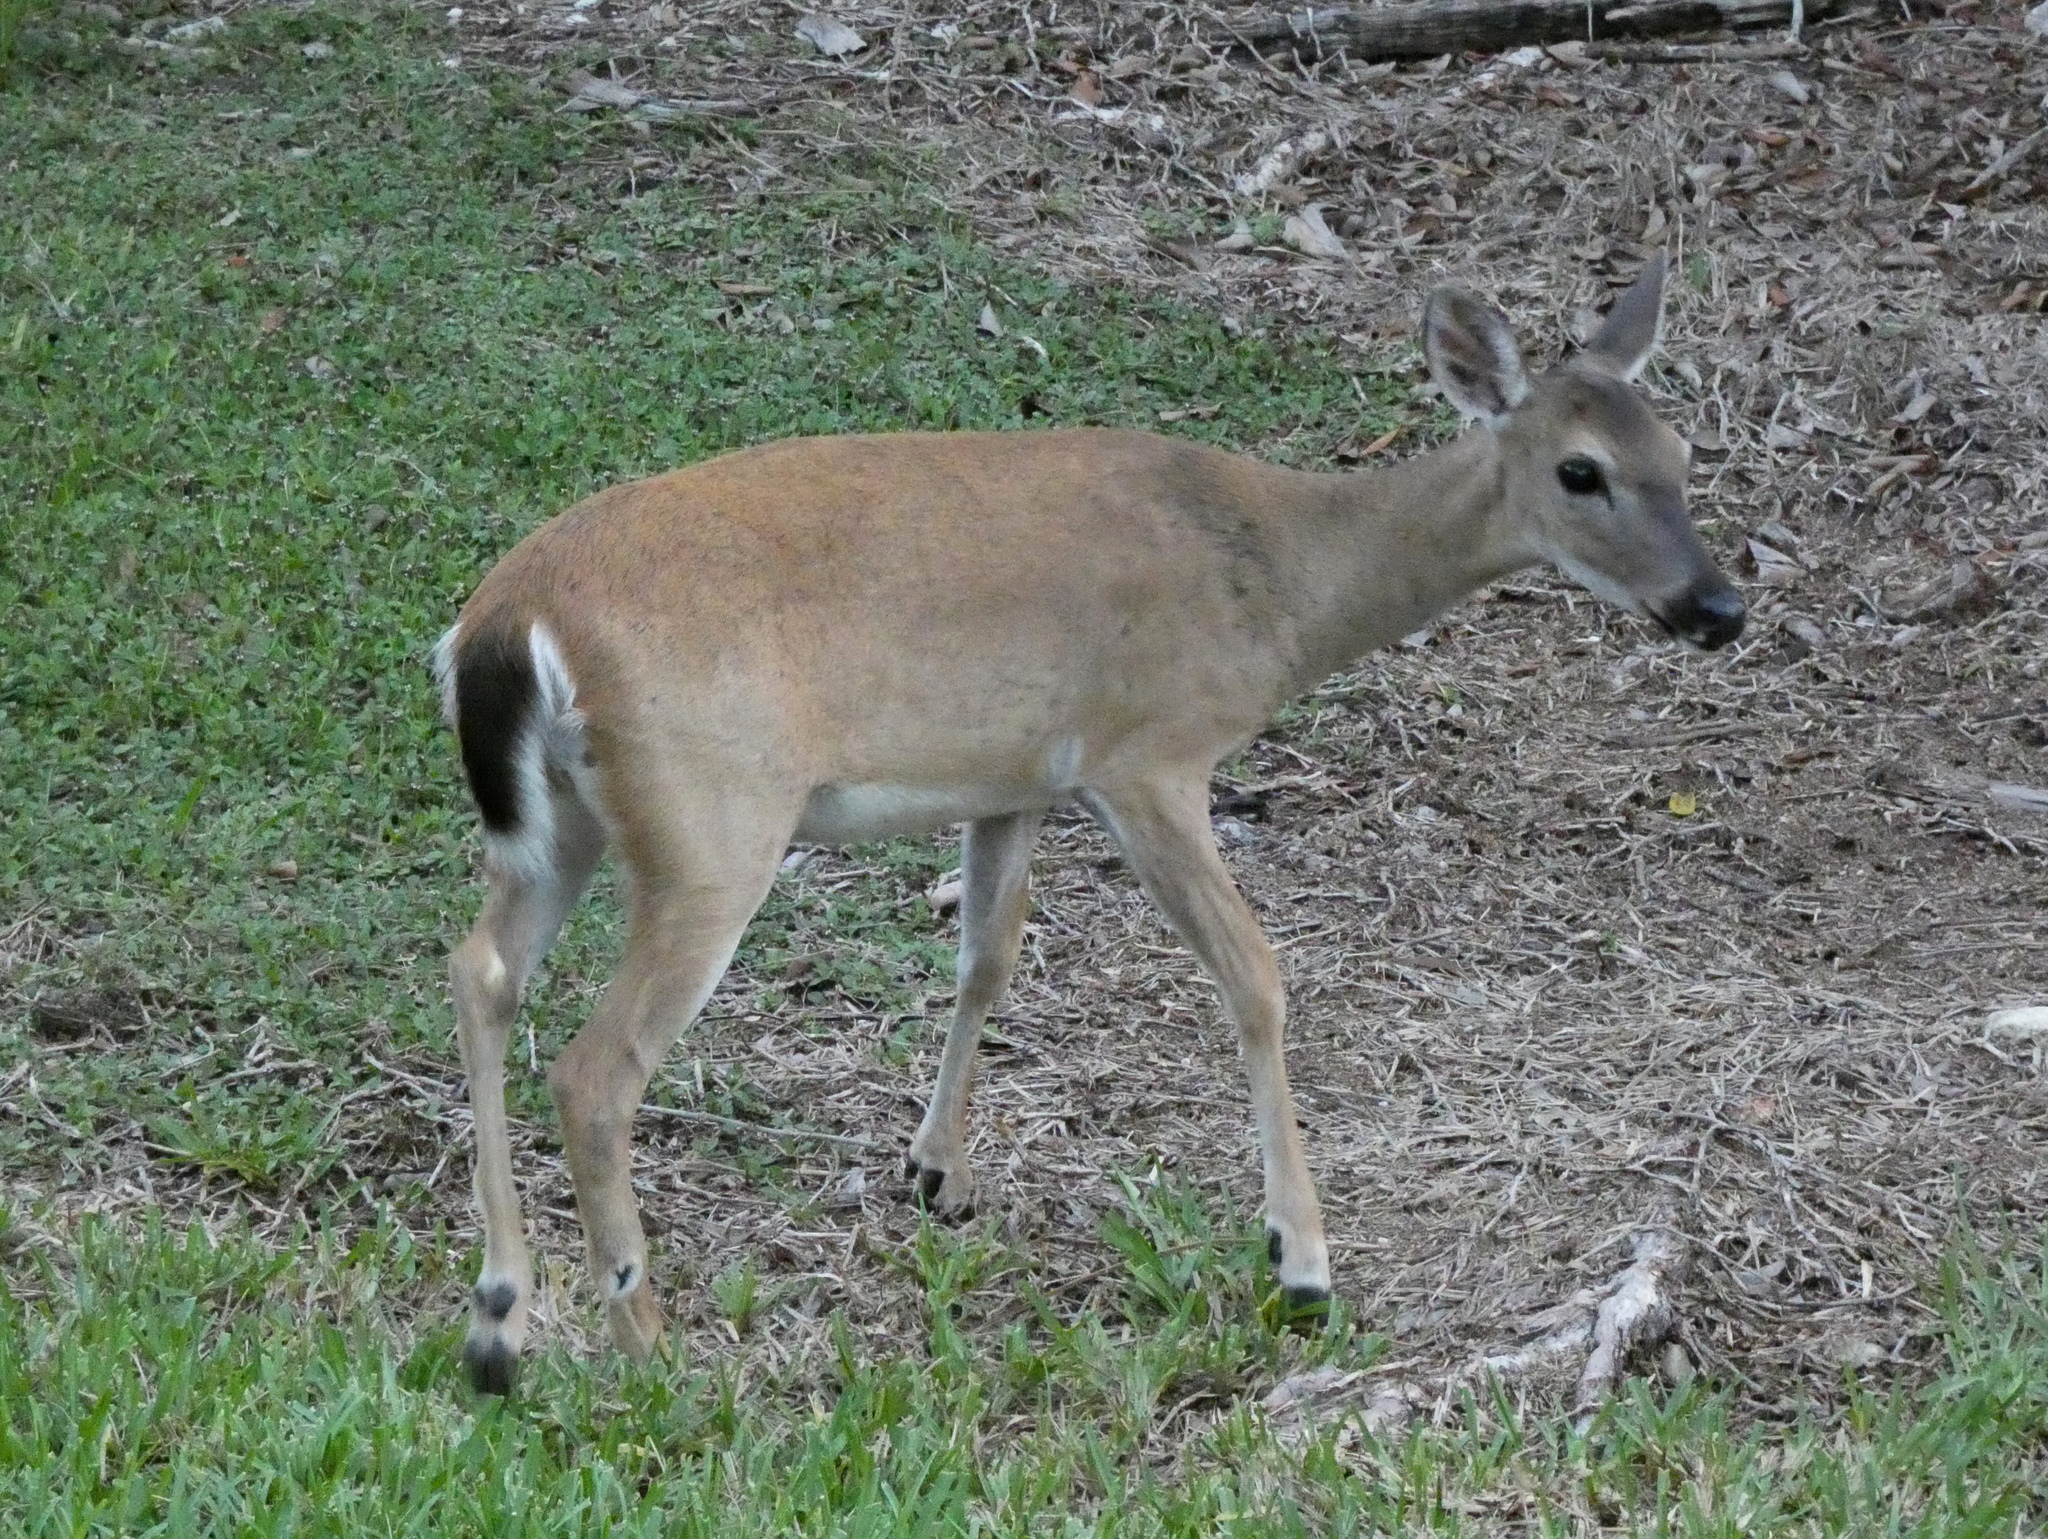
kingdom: Animalia
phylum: Chordata
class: Mammalia
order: Artiodactyla
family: Cervidae
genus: Odocoileus
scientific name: Odocoileus virginianus
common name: White-tailed deer
